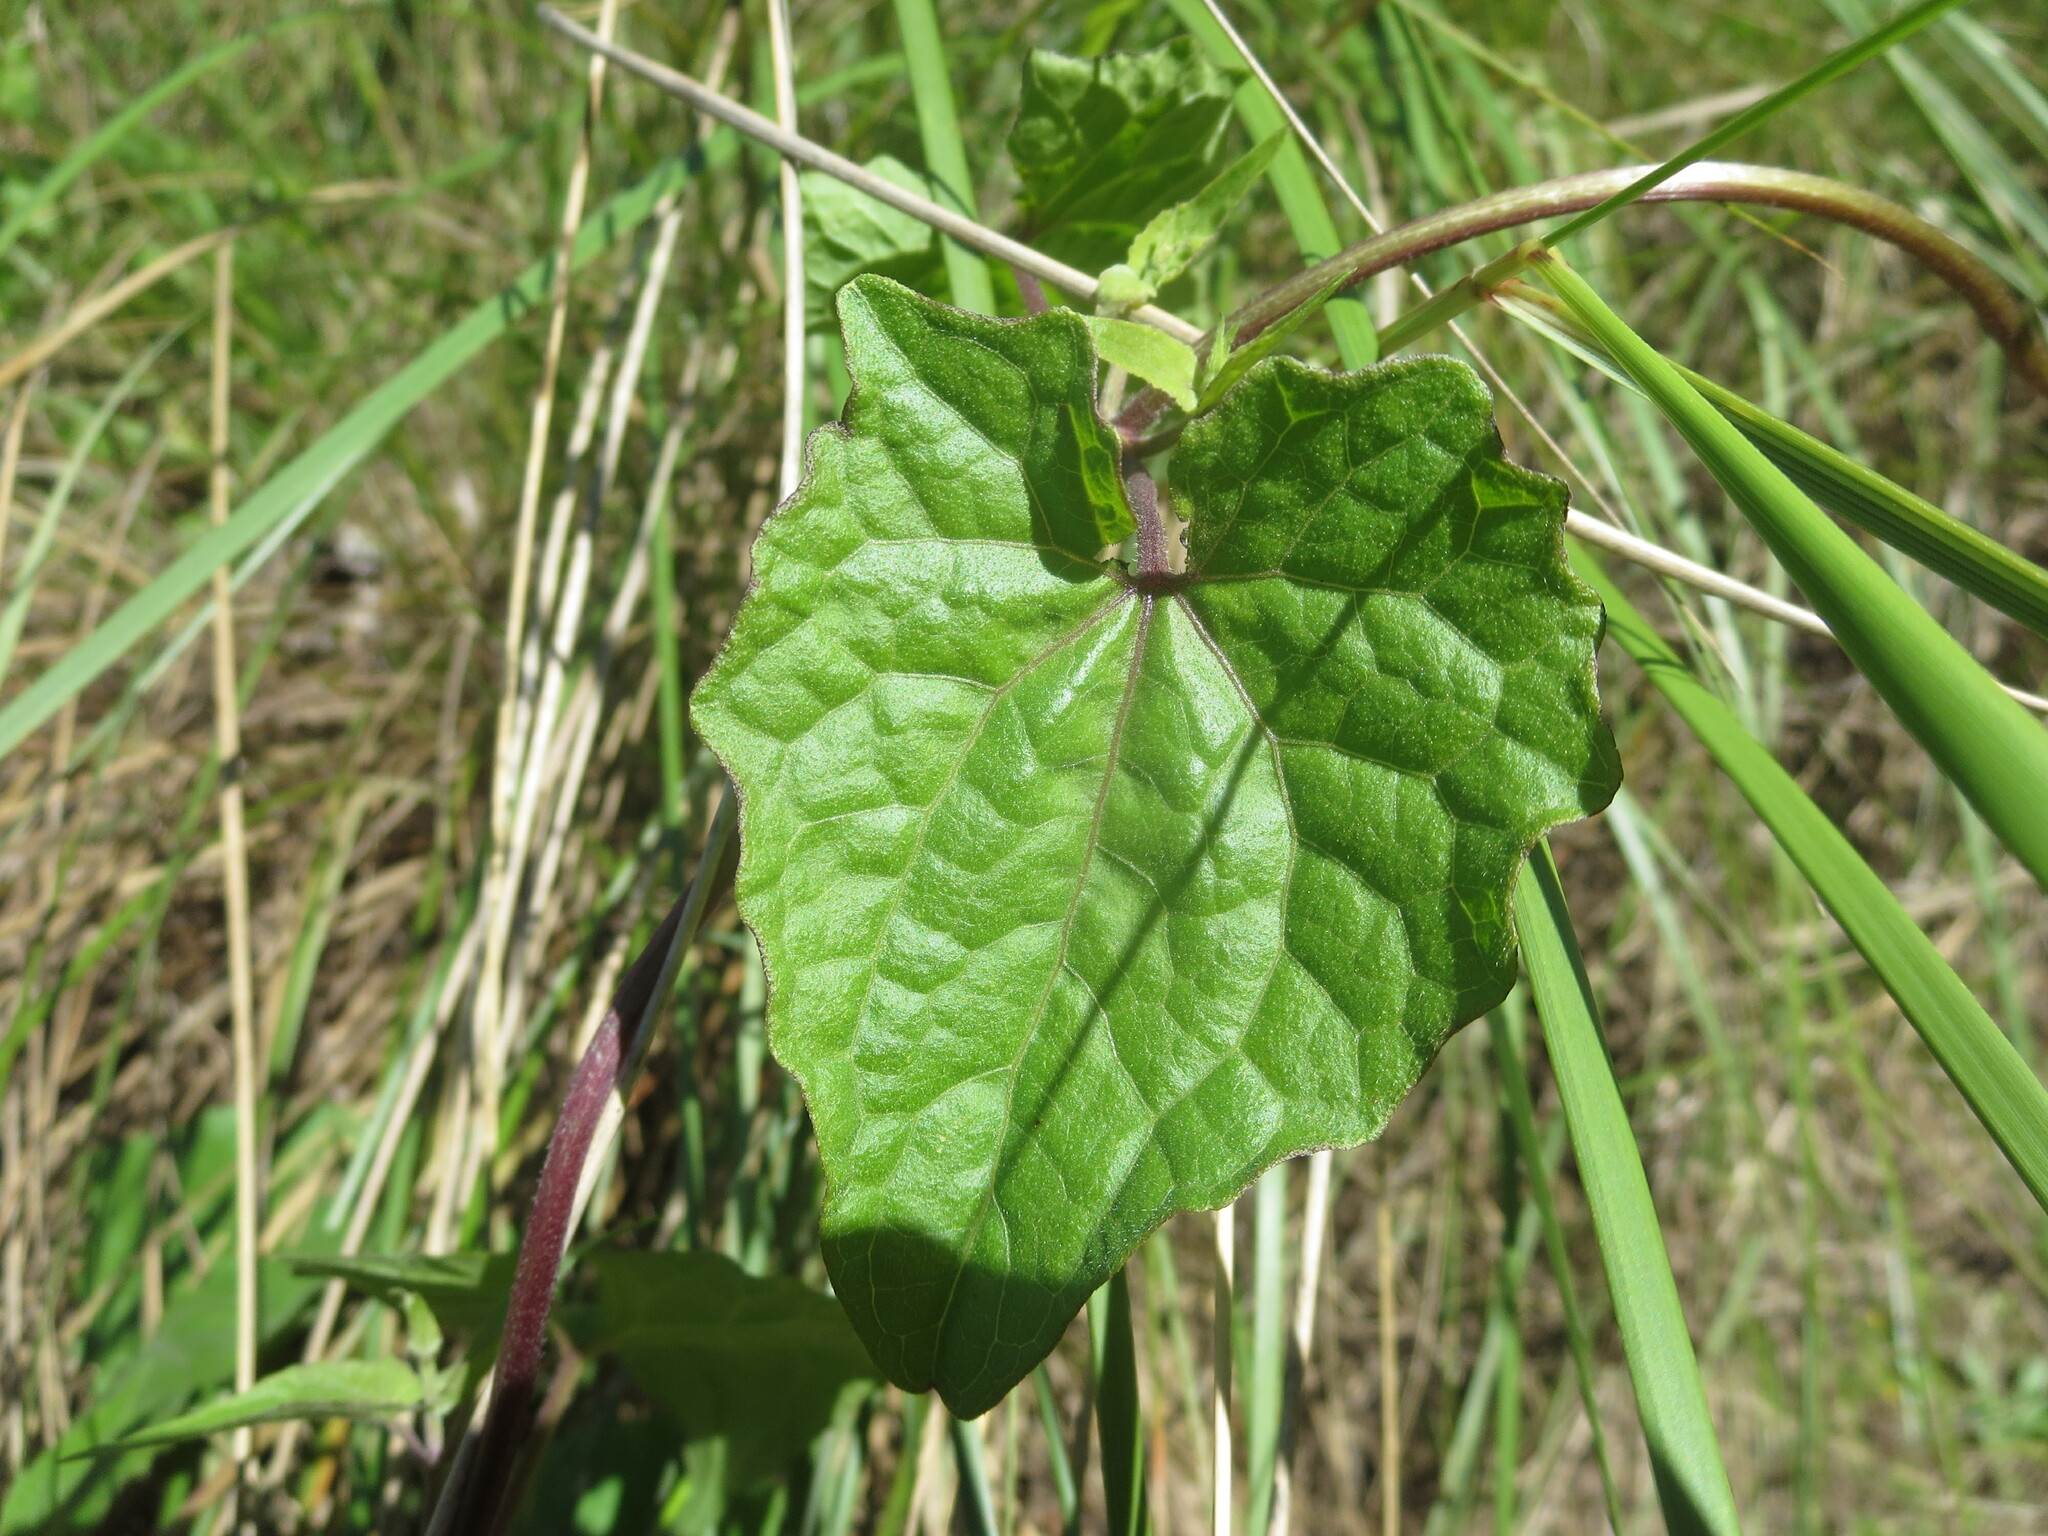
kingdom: Plantae
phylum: Tracheophyta
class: Magnoliopsida
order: Asterales
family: Asteraceae
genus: Mikania
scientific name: Mikania scandens
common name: Climbing hempvine
